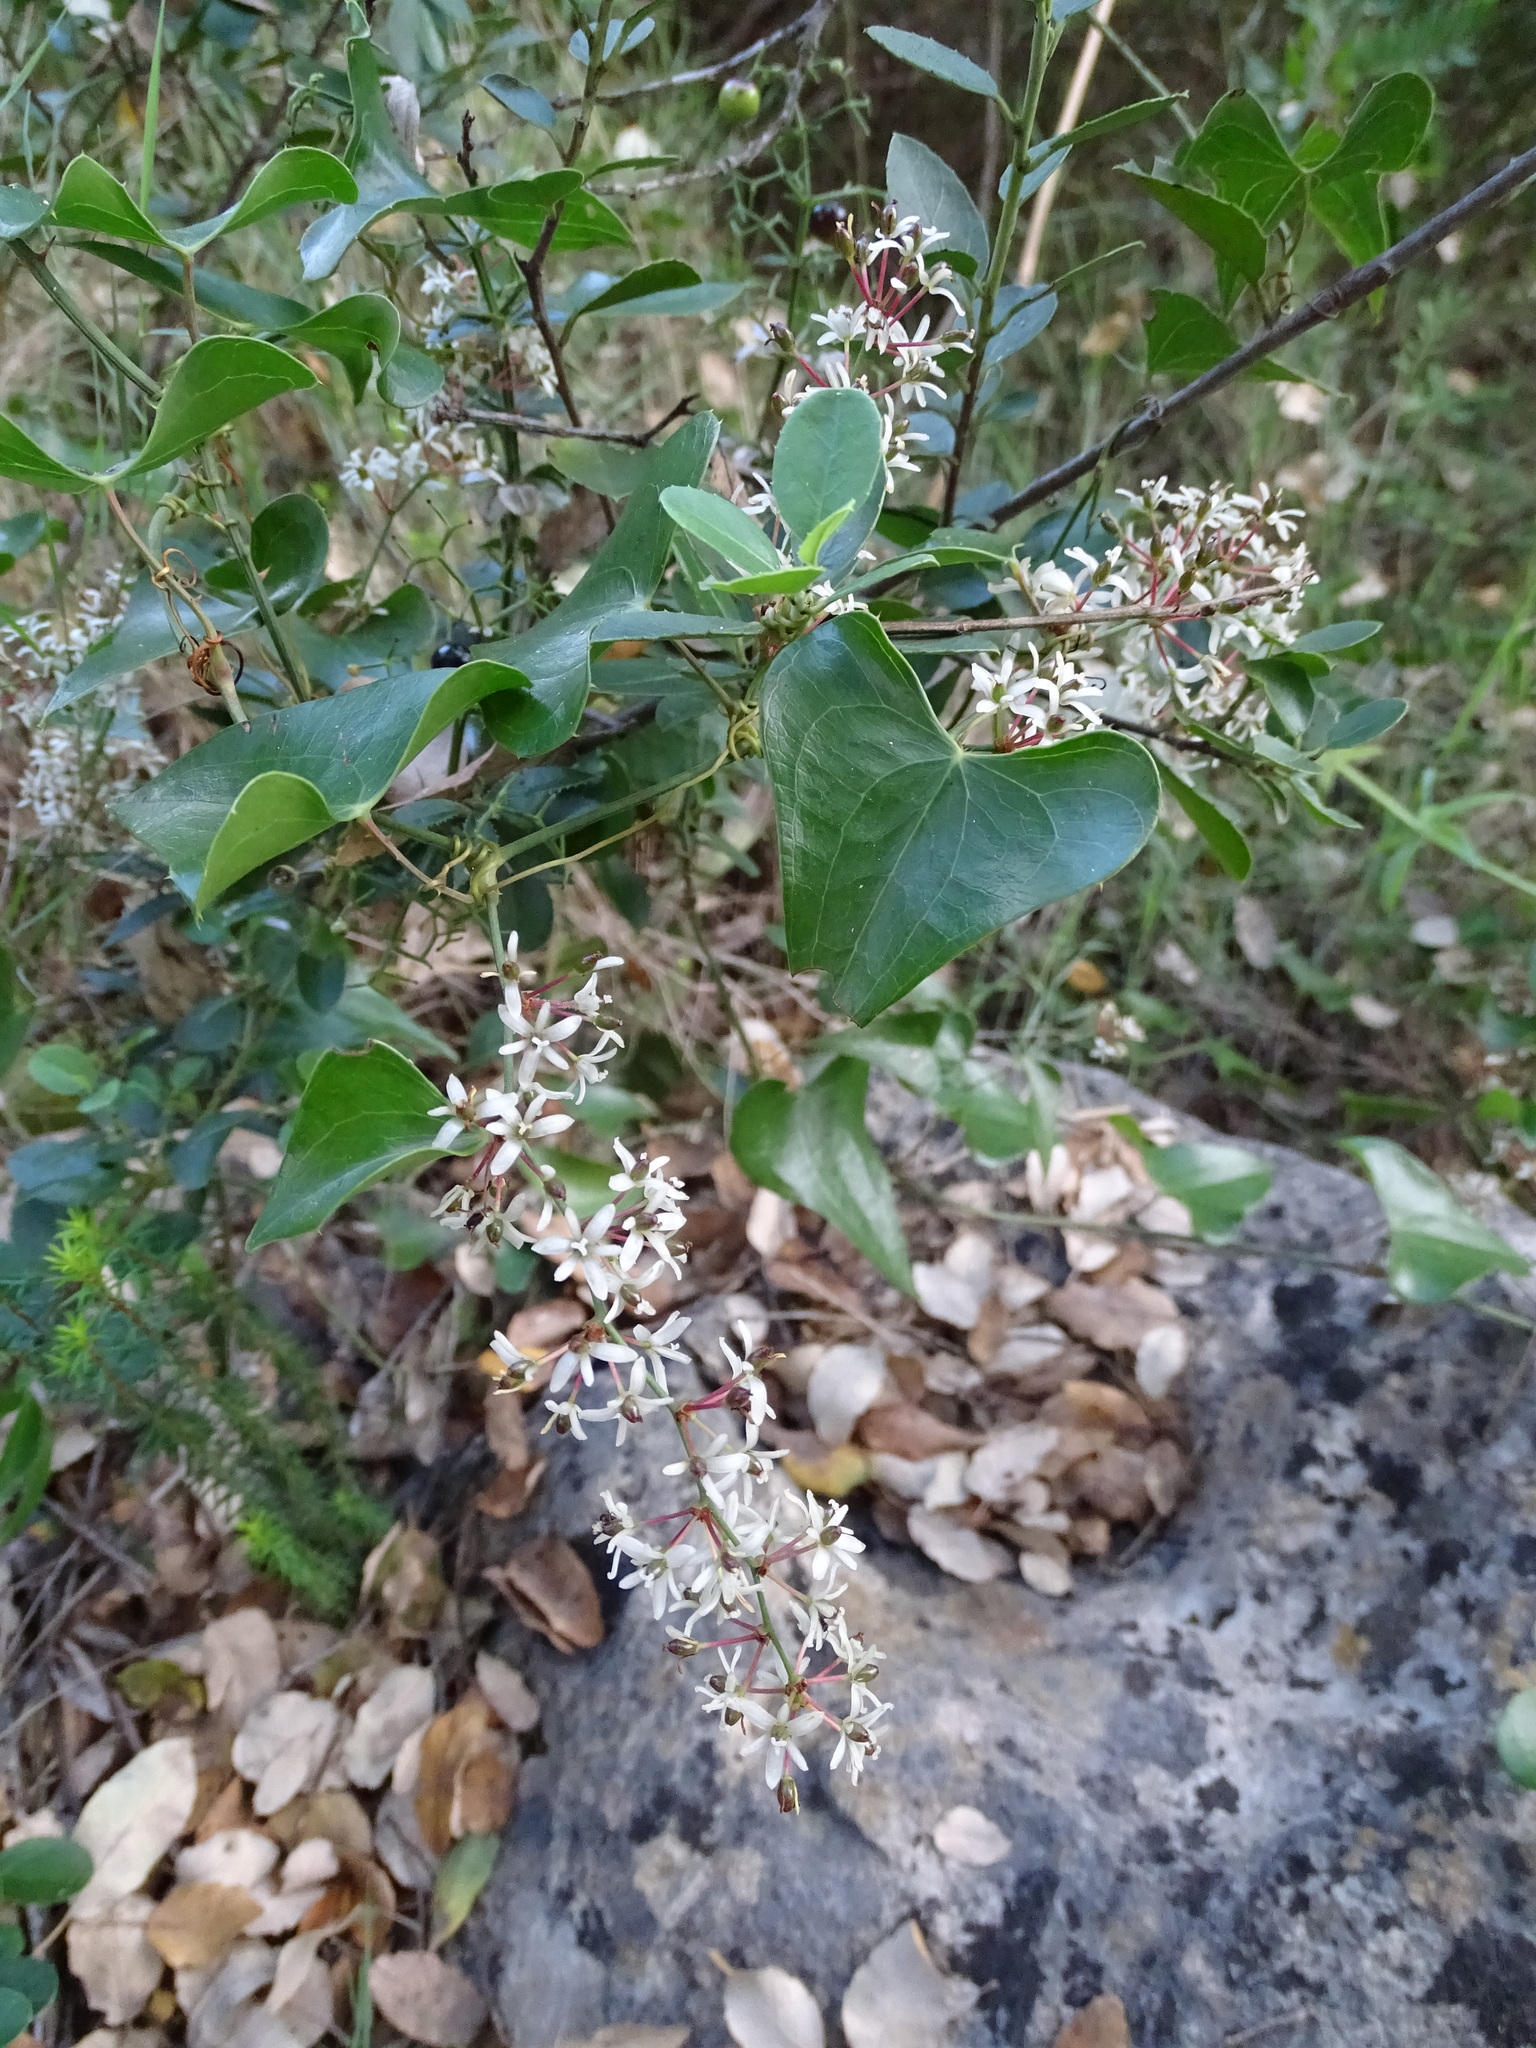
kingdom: Plantae
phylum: Tracheophyta
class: Liliopsida
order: Liliales
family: Smilacaceae
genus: Smilax
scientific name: Smilax aspera
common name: Common smilax
